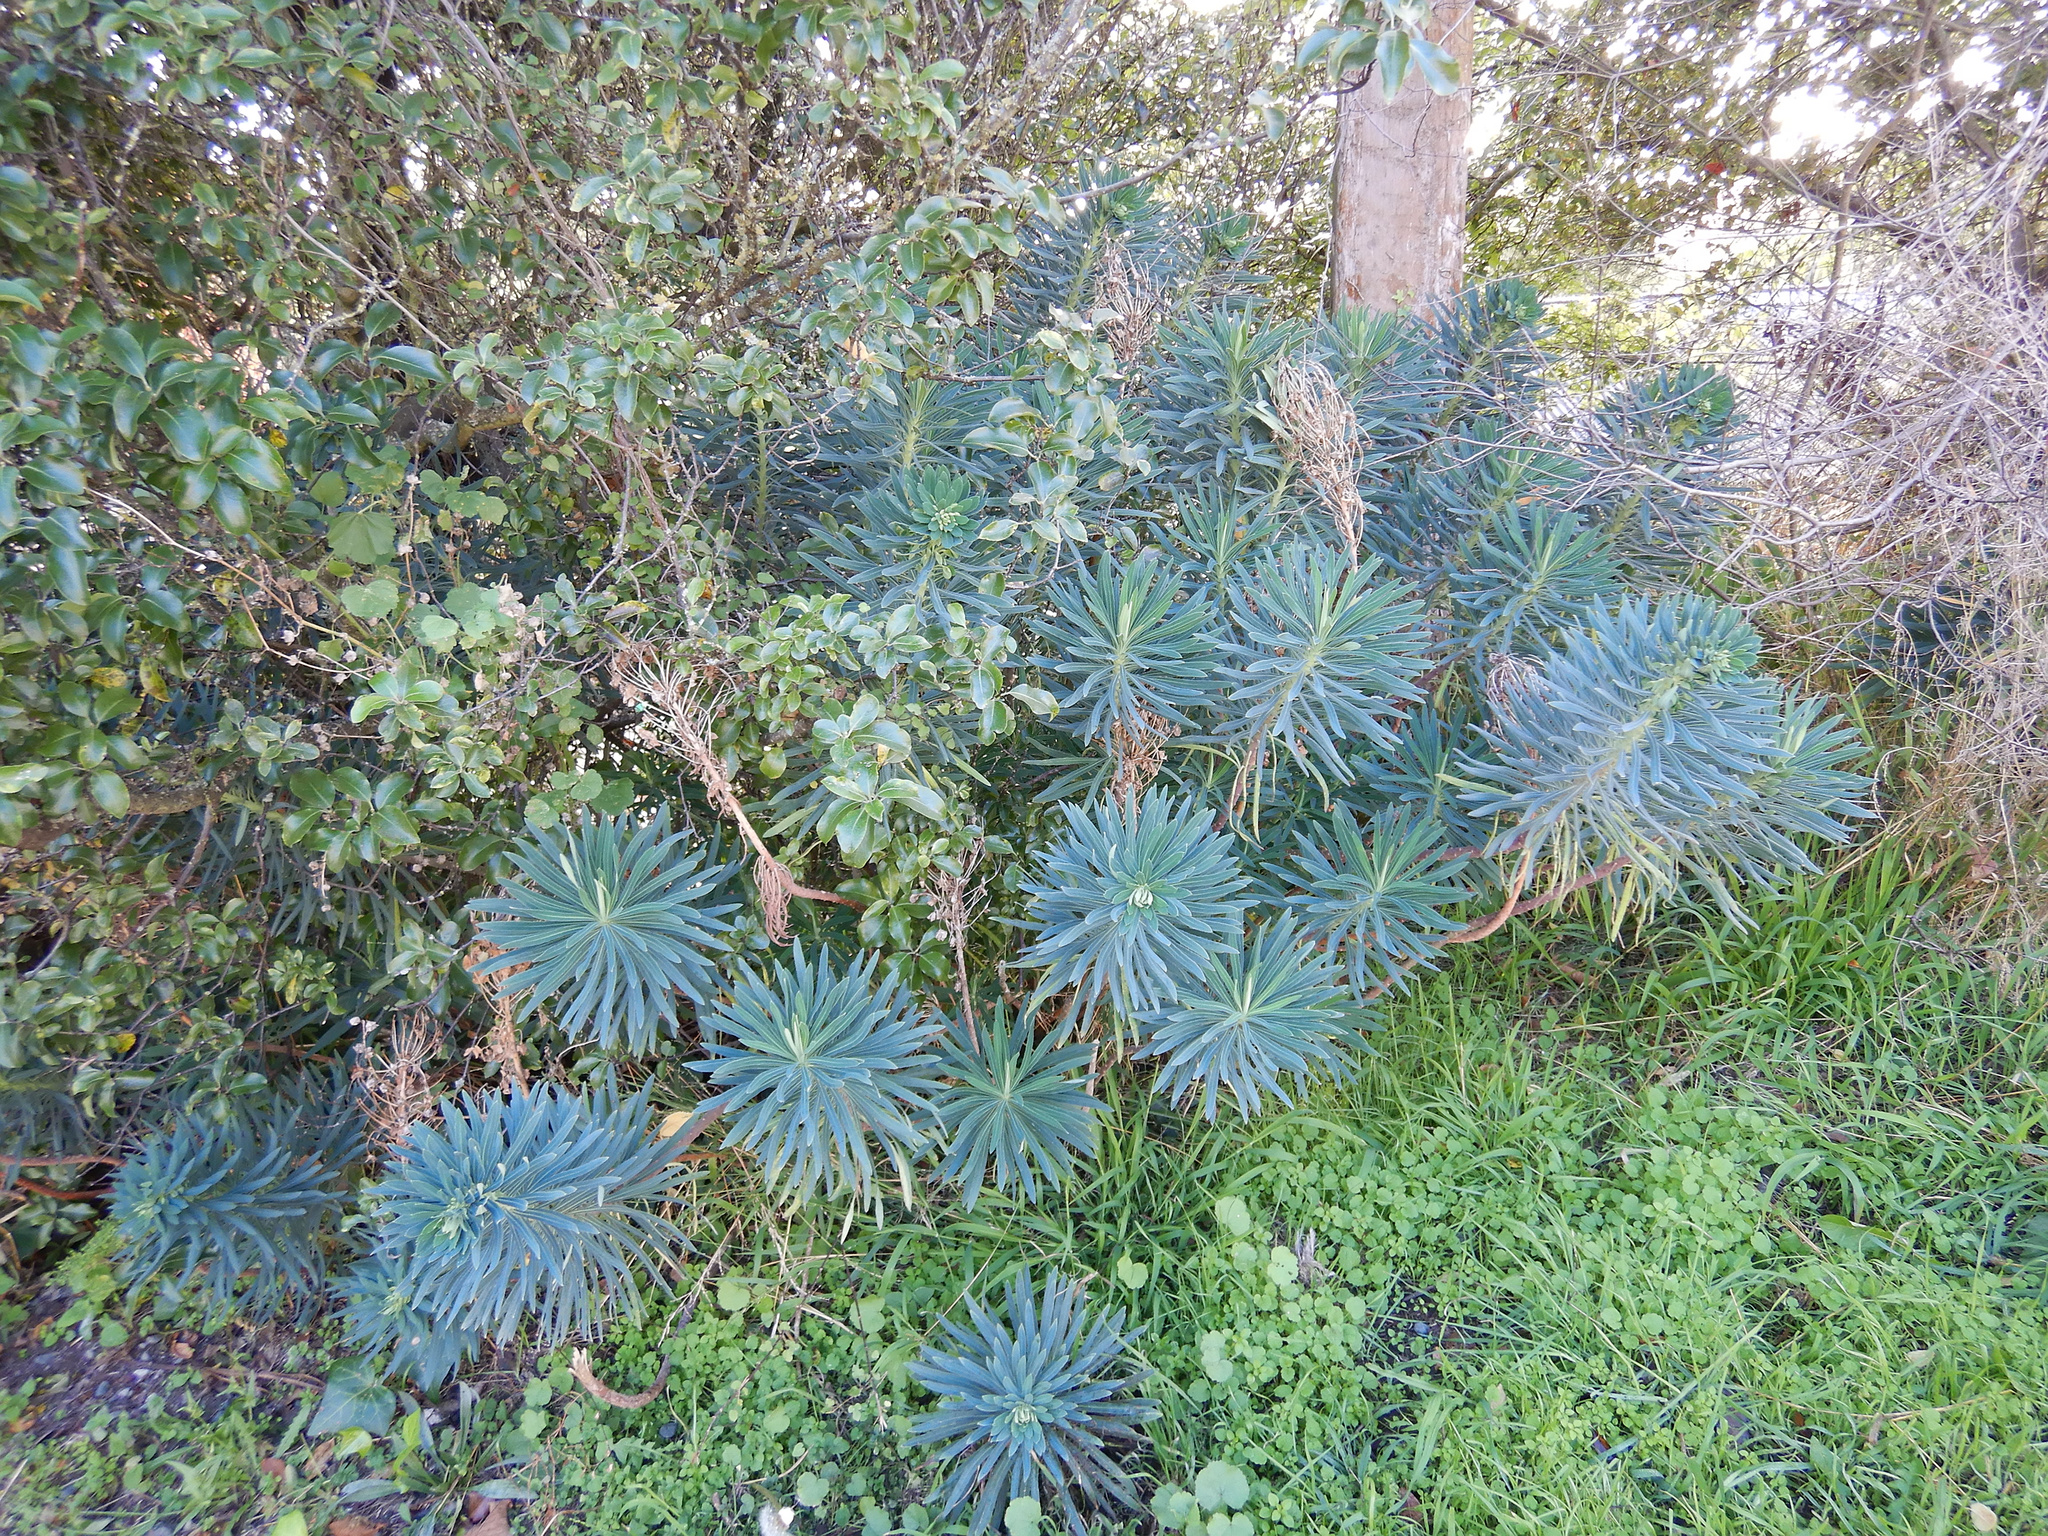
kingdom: Plantae
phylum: Tracheophyta
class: Magnoliopsida
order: Malpighiales
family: Euphorbiaceae
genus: Euphorbia
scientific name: Euphorbia characias
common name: Mediterranean spurge
